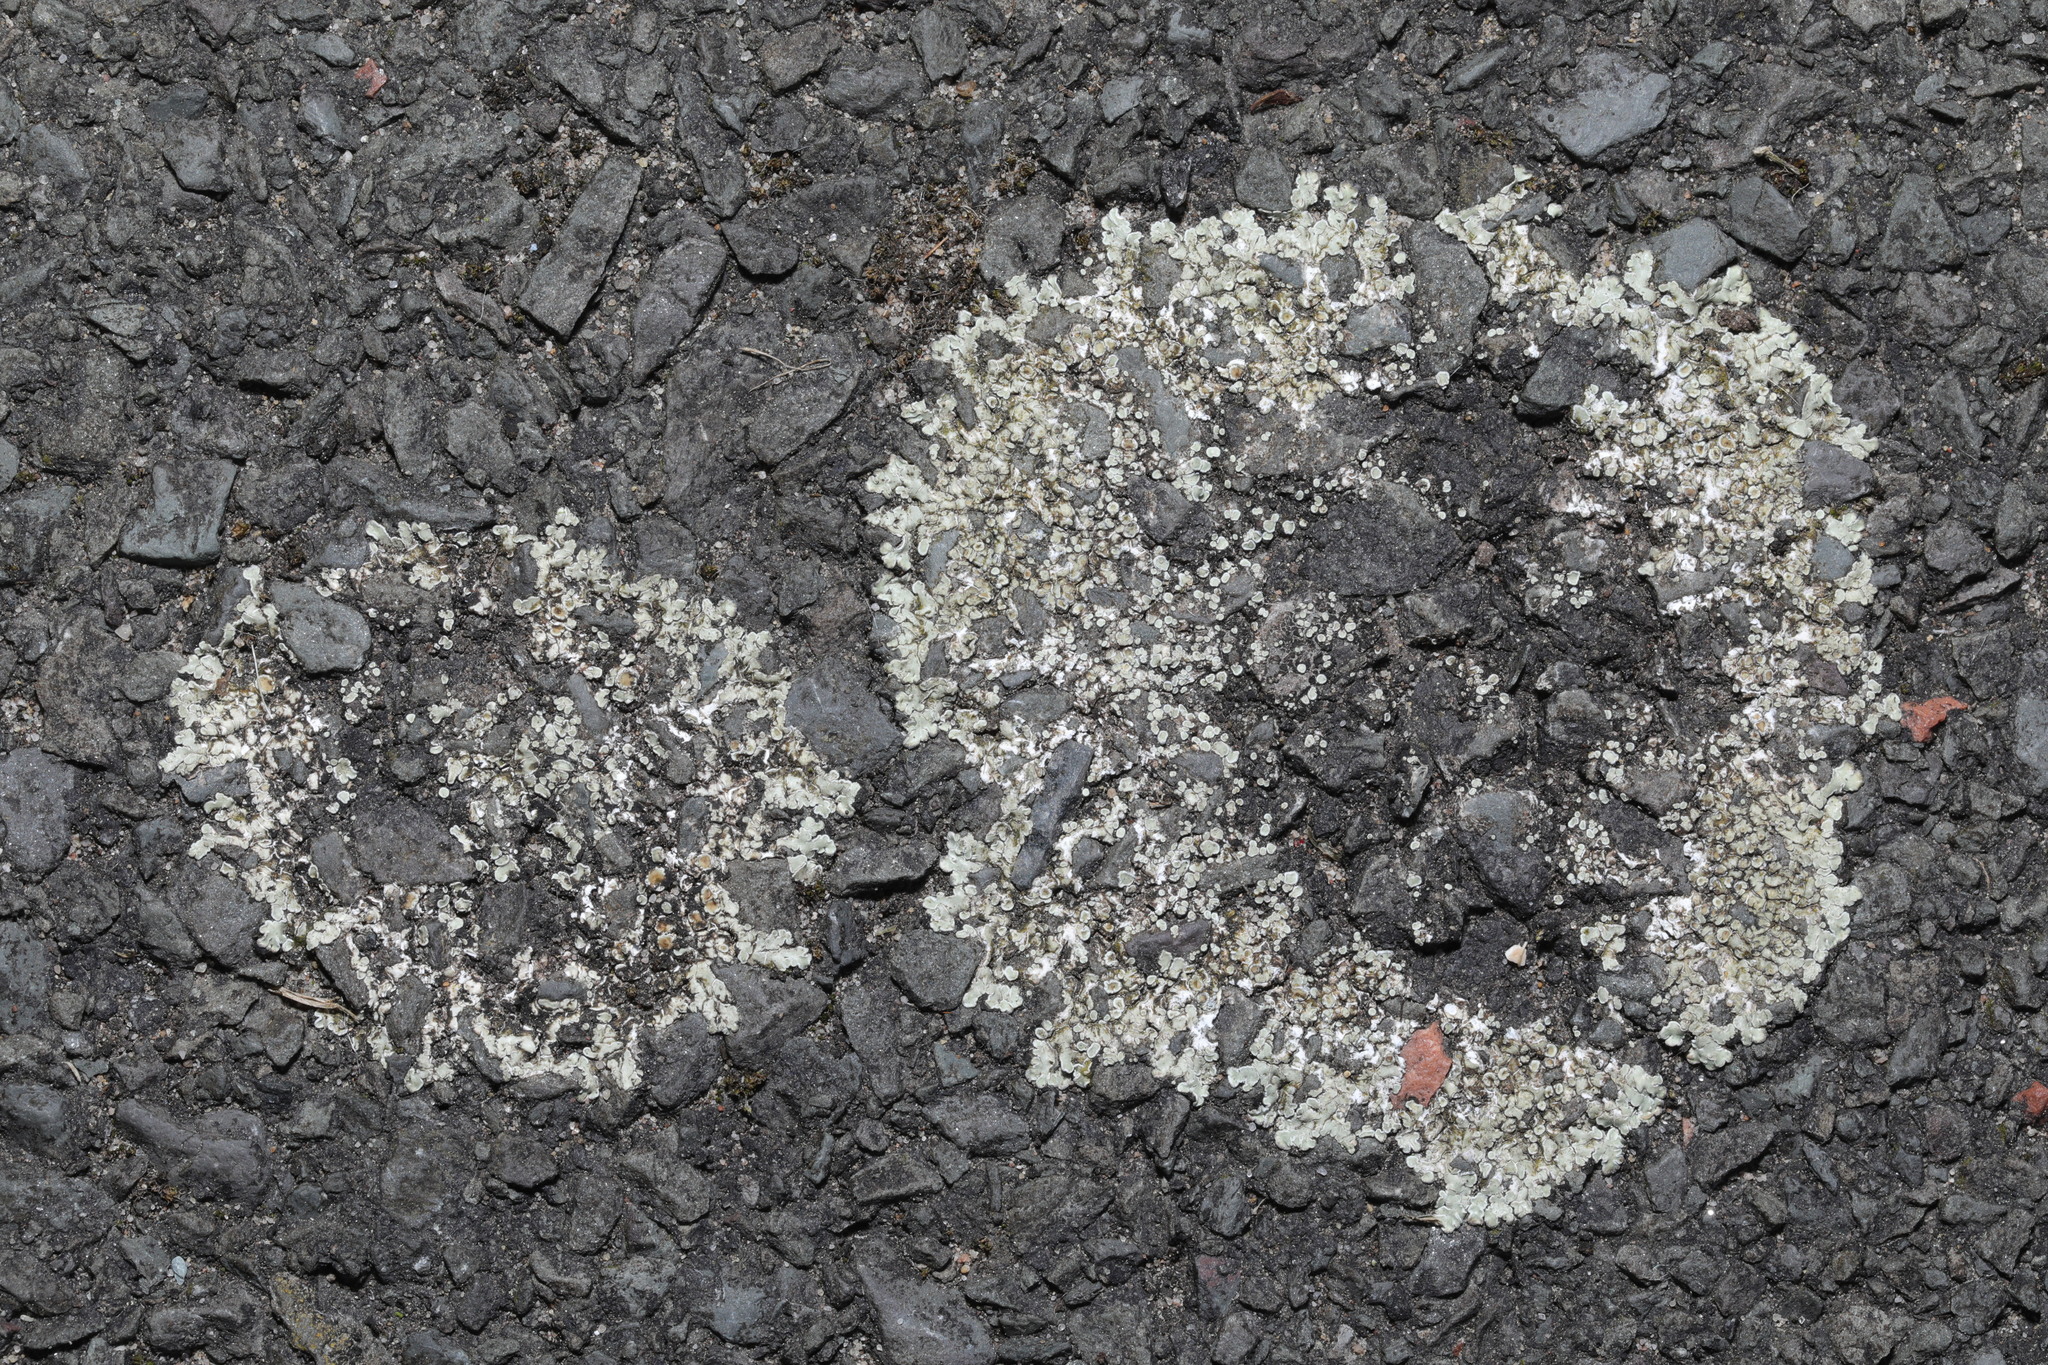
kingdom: Fungi
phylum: Ascomycota
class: Lecanoromycetes
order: Lecanorales
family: Lecanoraceae
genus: Protoparmeliopsis
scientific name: Protoparmeliopsis muralis
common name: Stonewall rim lichen
